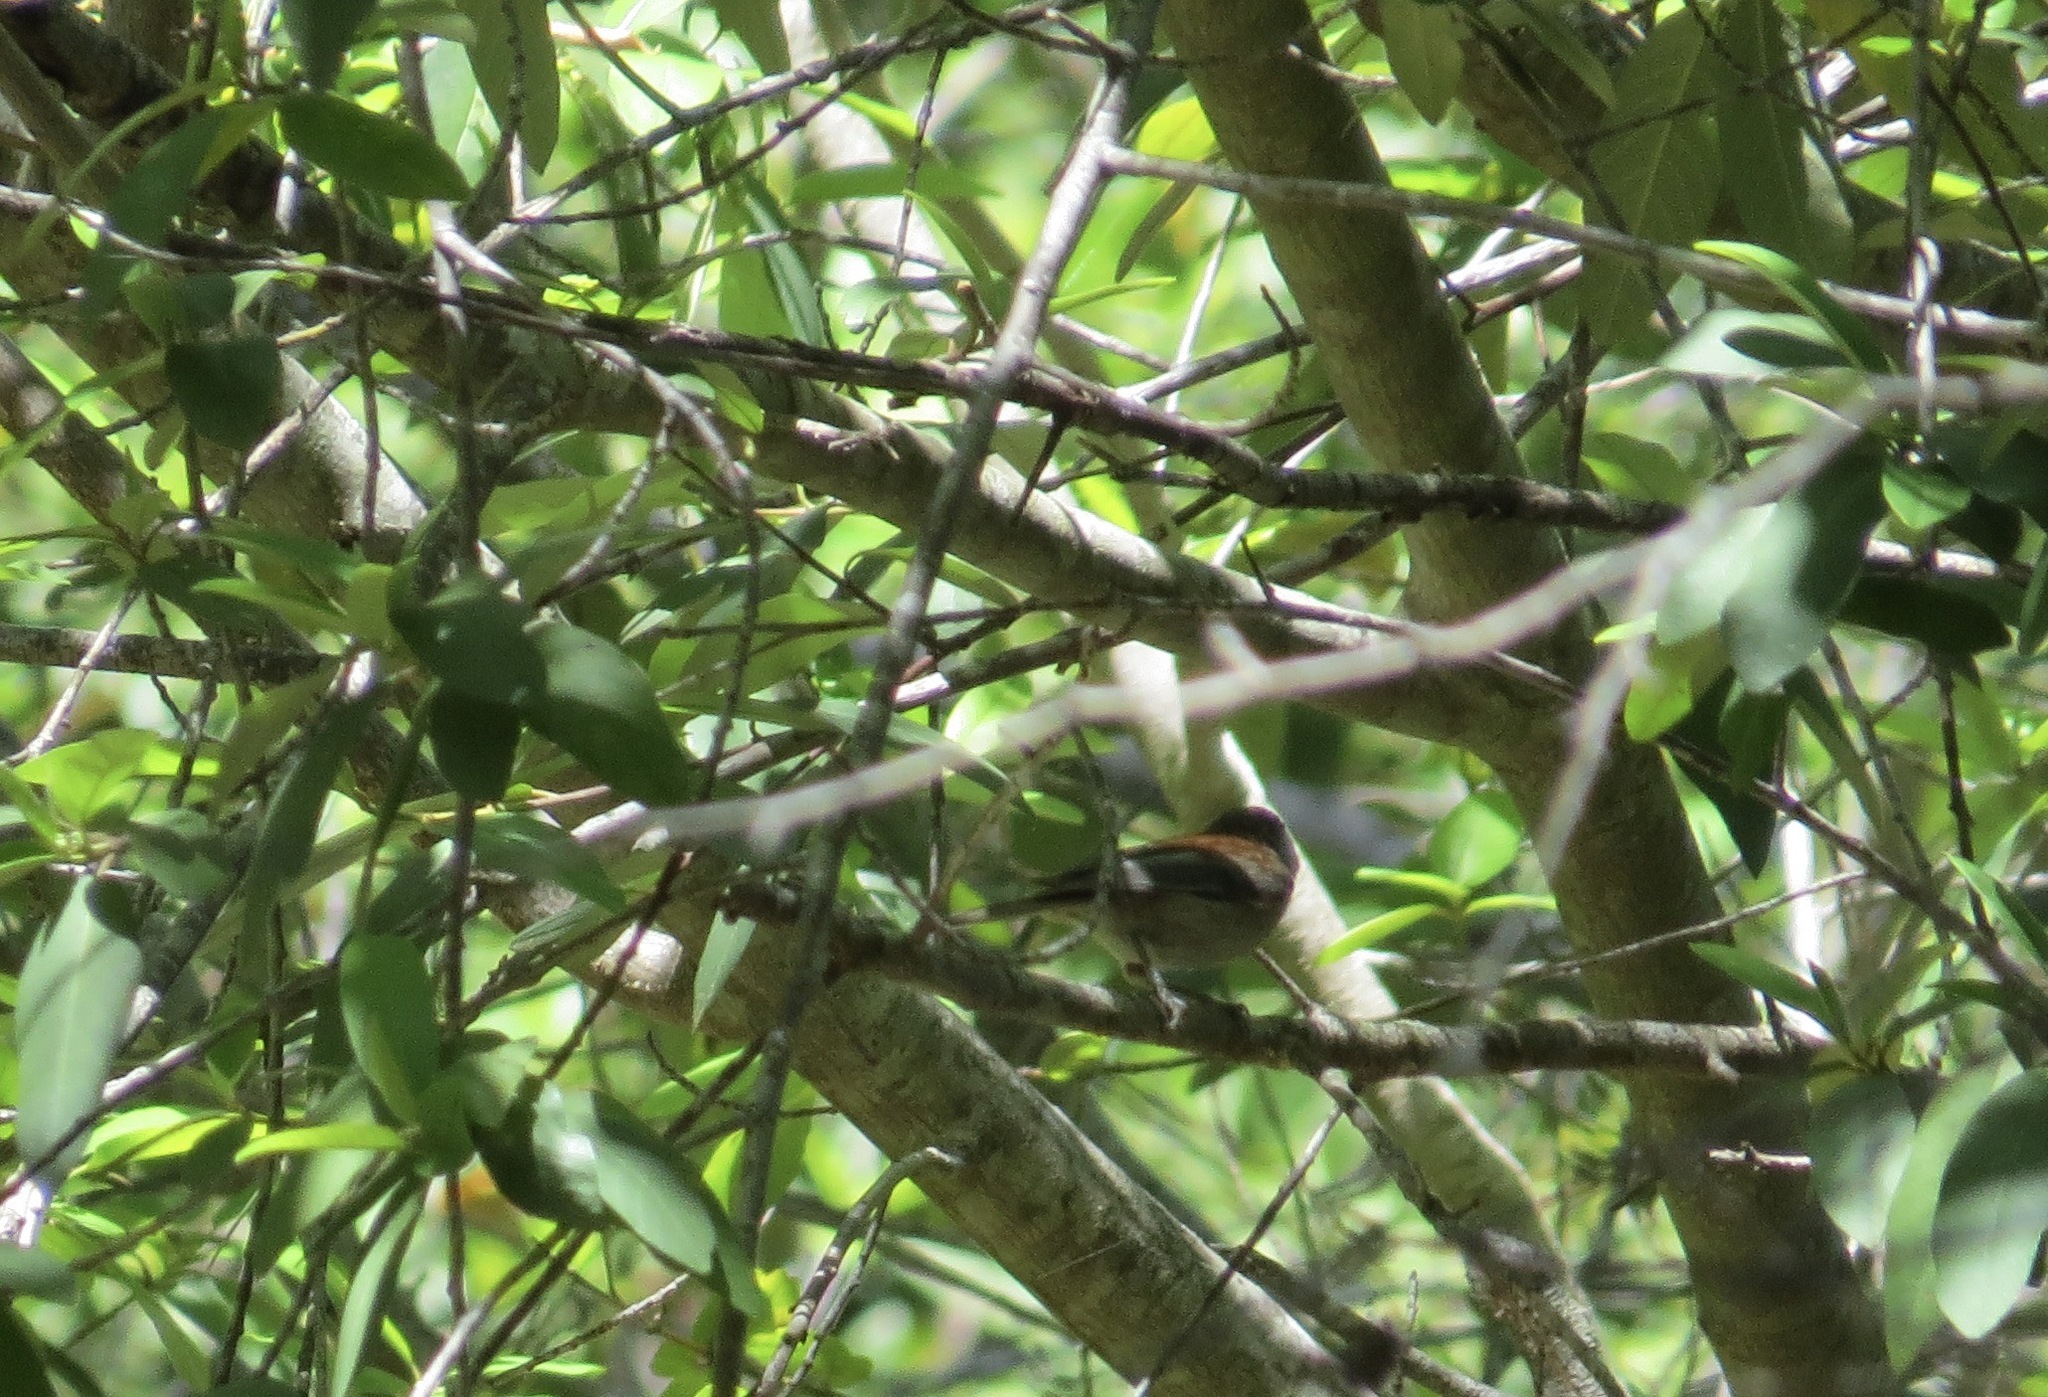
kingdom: Animalia
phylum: Chordata
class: Aves
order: Passeriformes
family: Paridae
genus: Poecile
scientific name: Poecile rufescens
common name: Chestnut-backed chickadee
